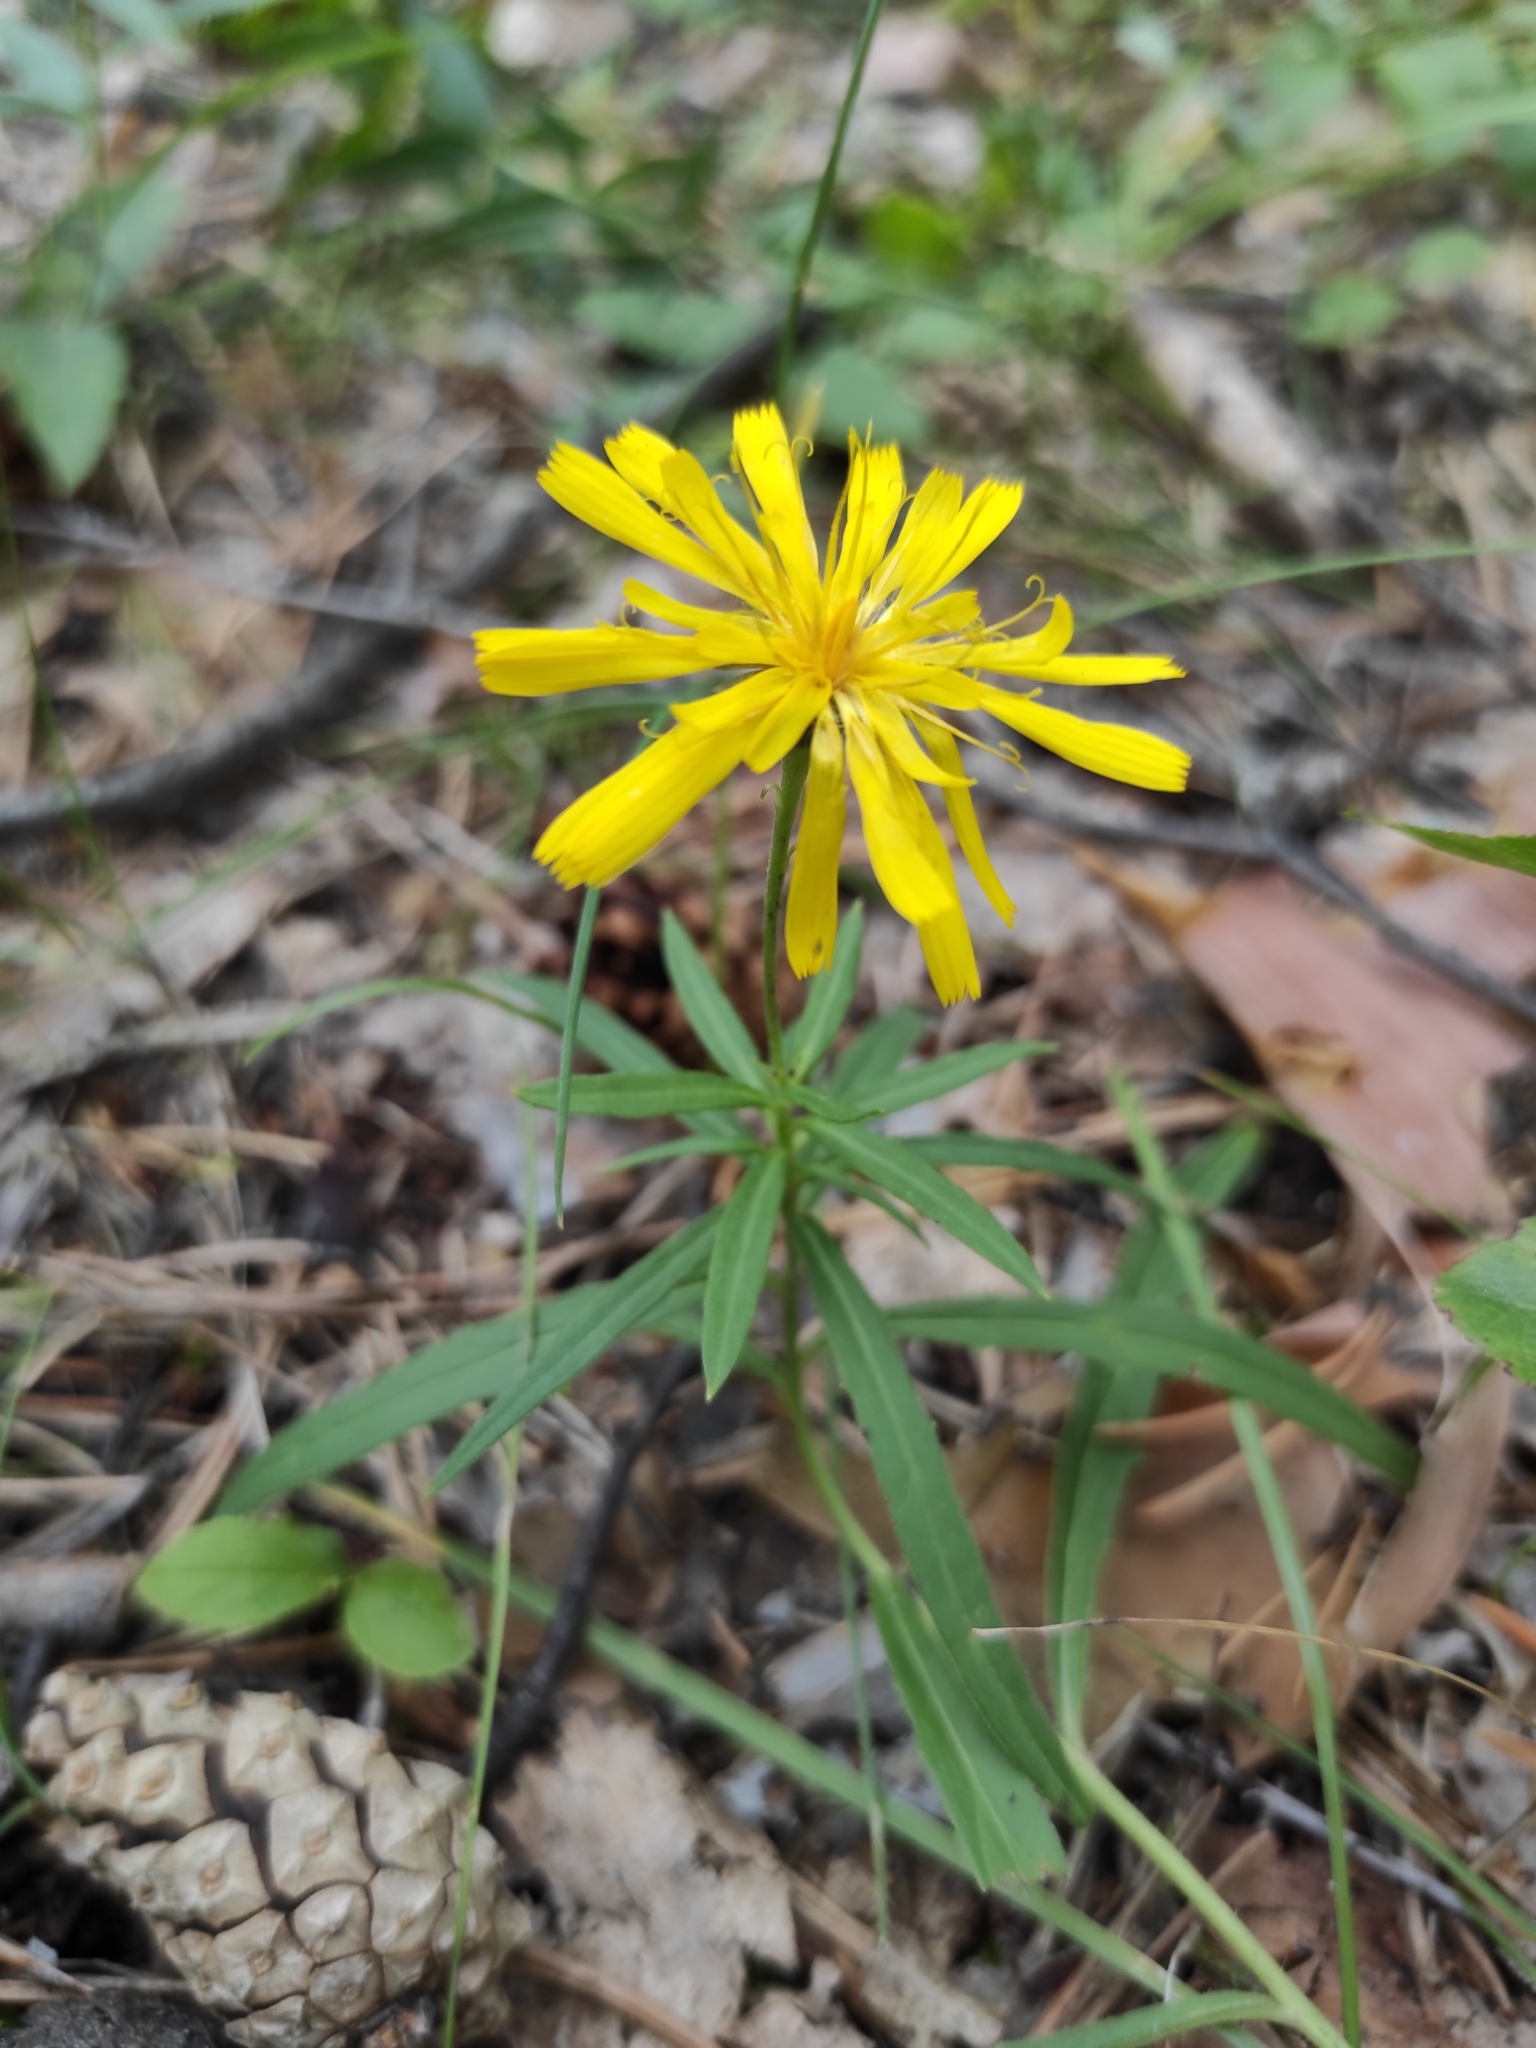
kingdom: Plantae
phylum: Tracheophyta
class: Magnoliopsida
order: Asterales
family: Asteraceae
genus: Hieracium
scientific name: Hieracium umbellatum
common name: Northern hawkweed
